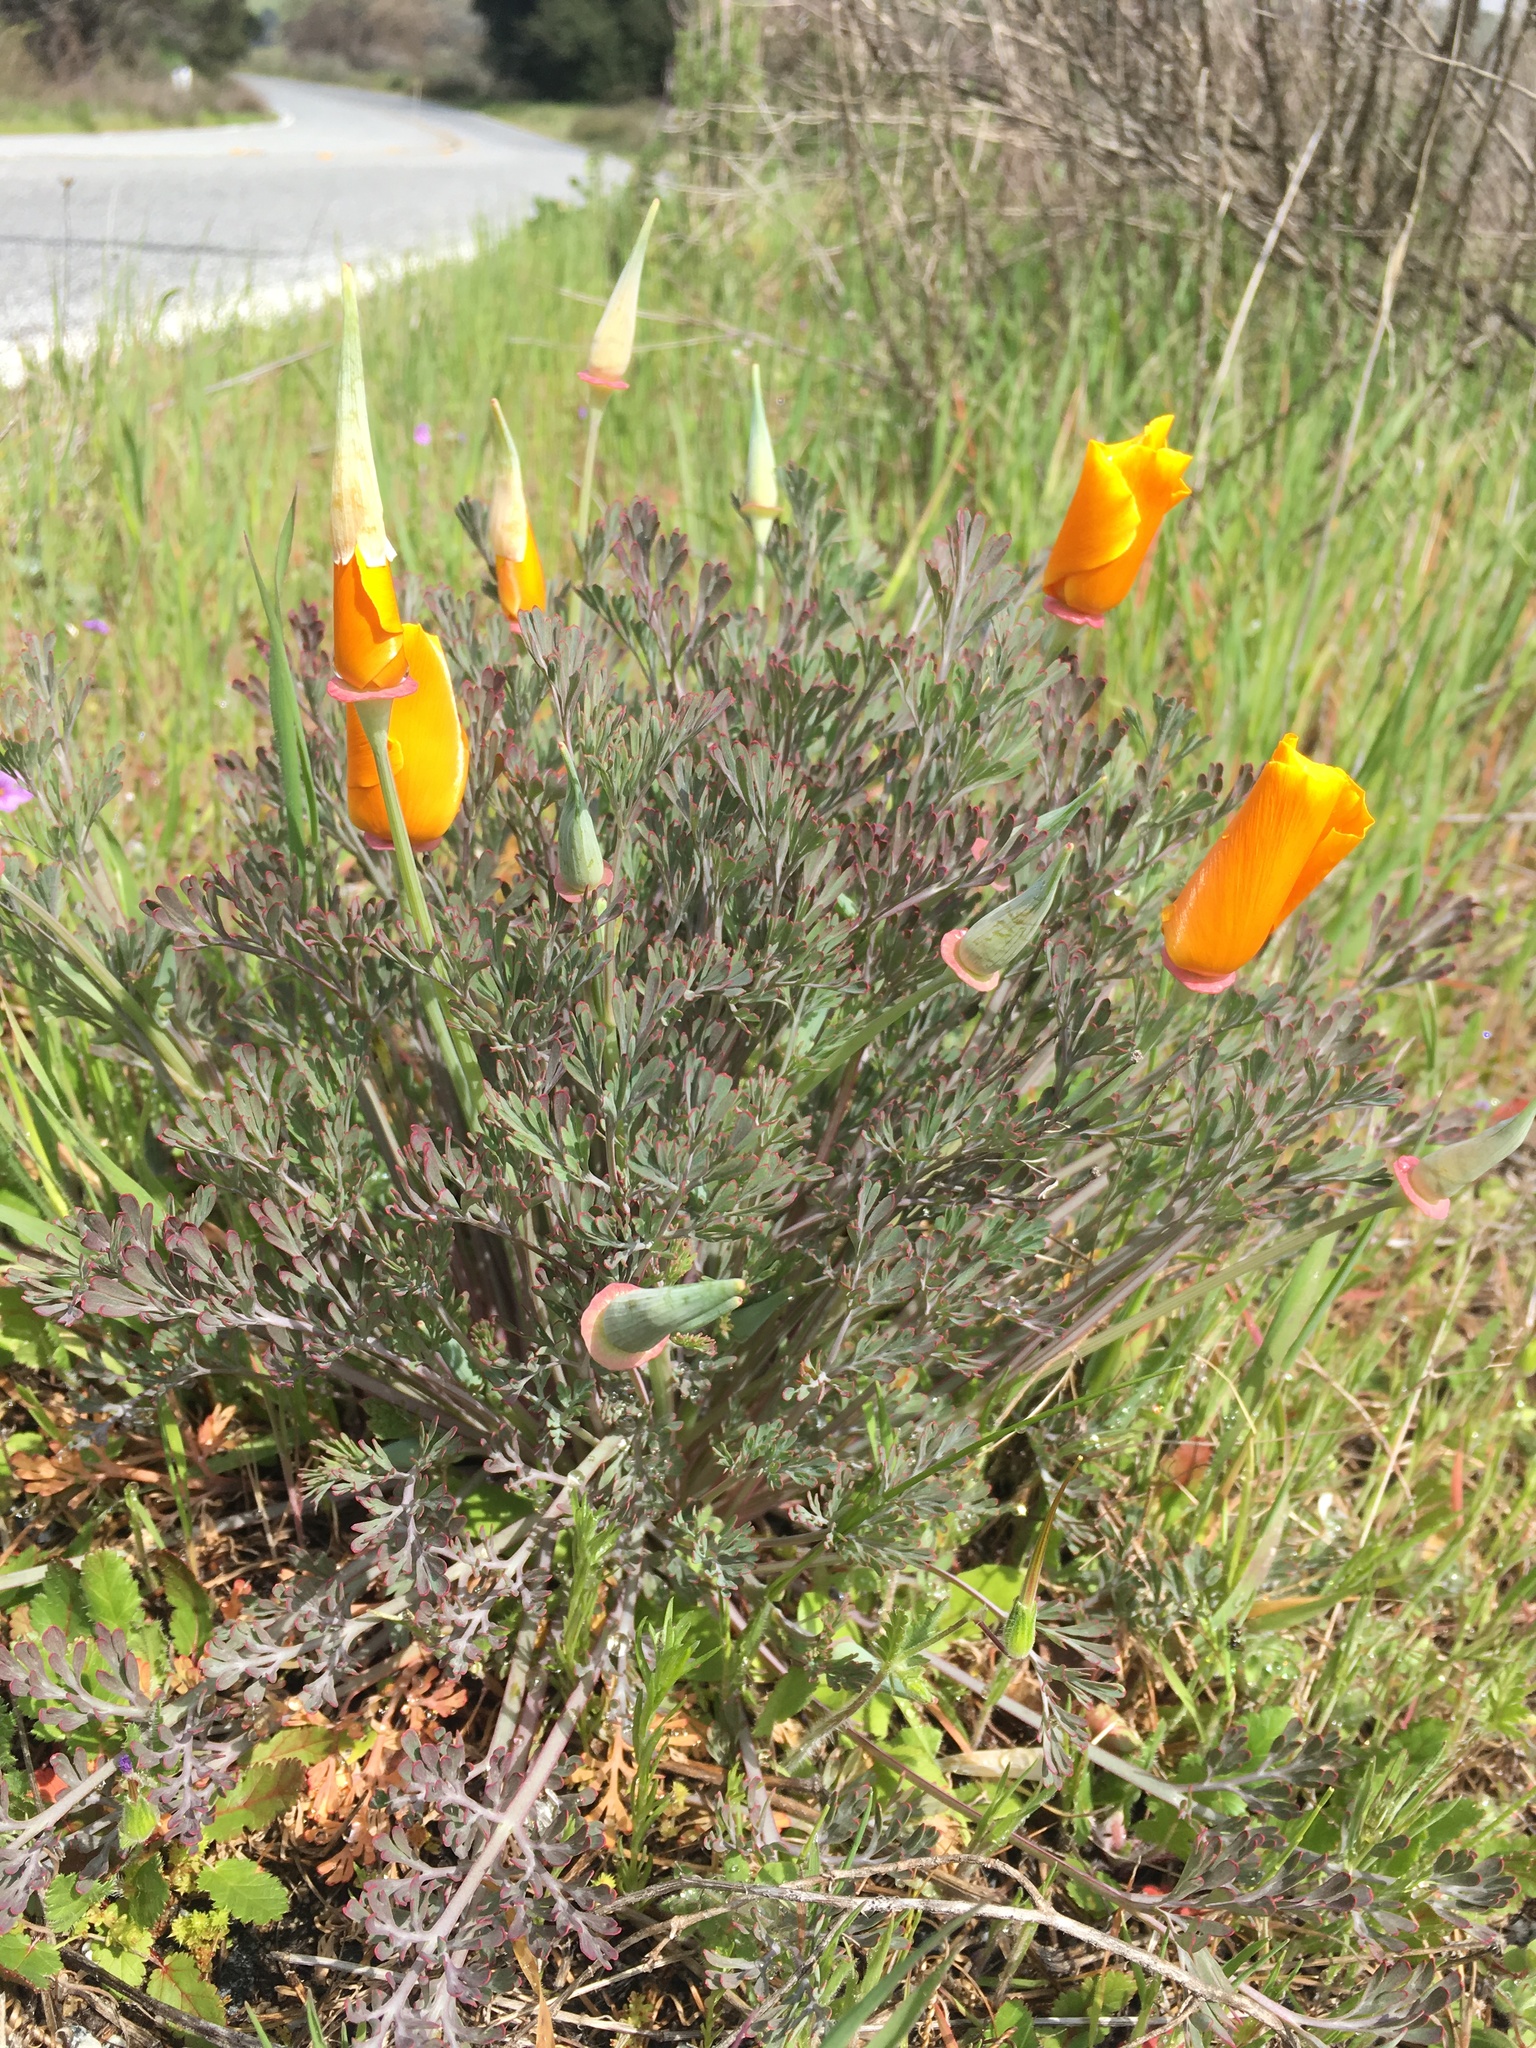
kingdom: Plantae
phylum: Tracheophyta
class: Magnoliopsida
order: Ranunculales
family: Papaveraceae
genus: Eschscholzia
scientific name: Eschscholzia californica
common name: California poppy
